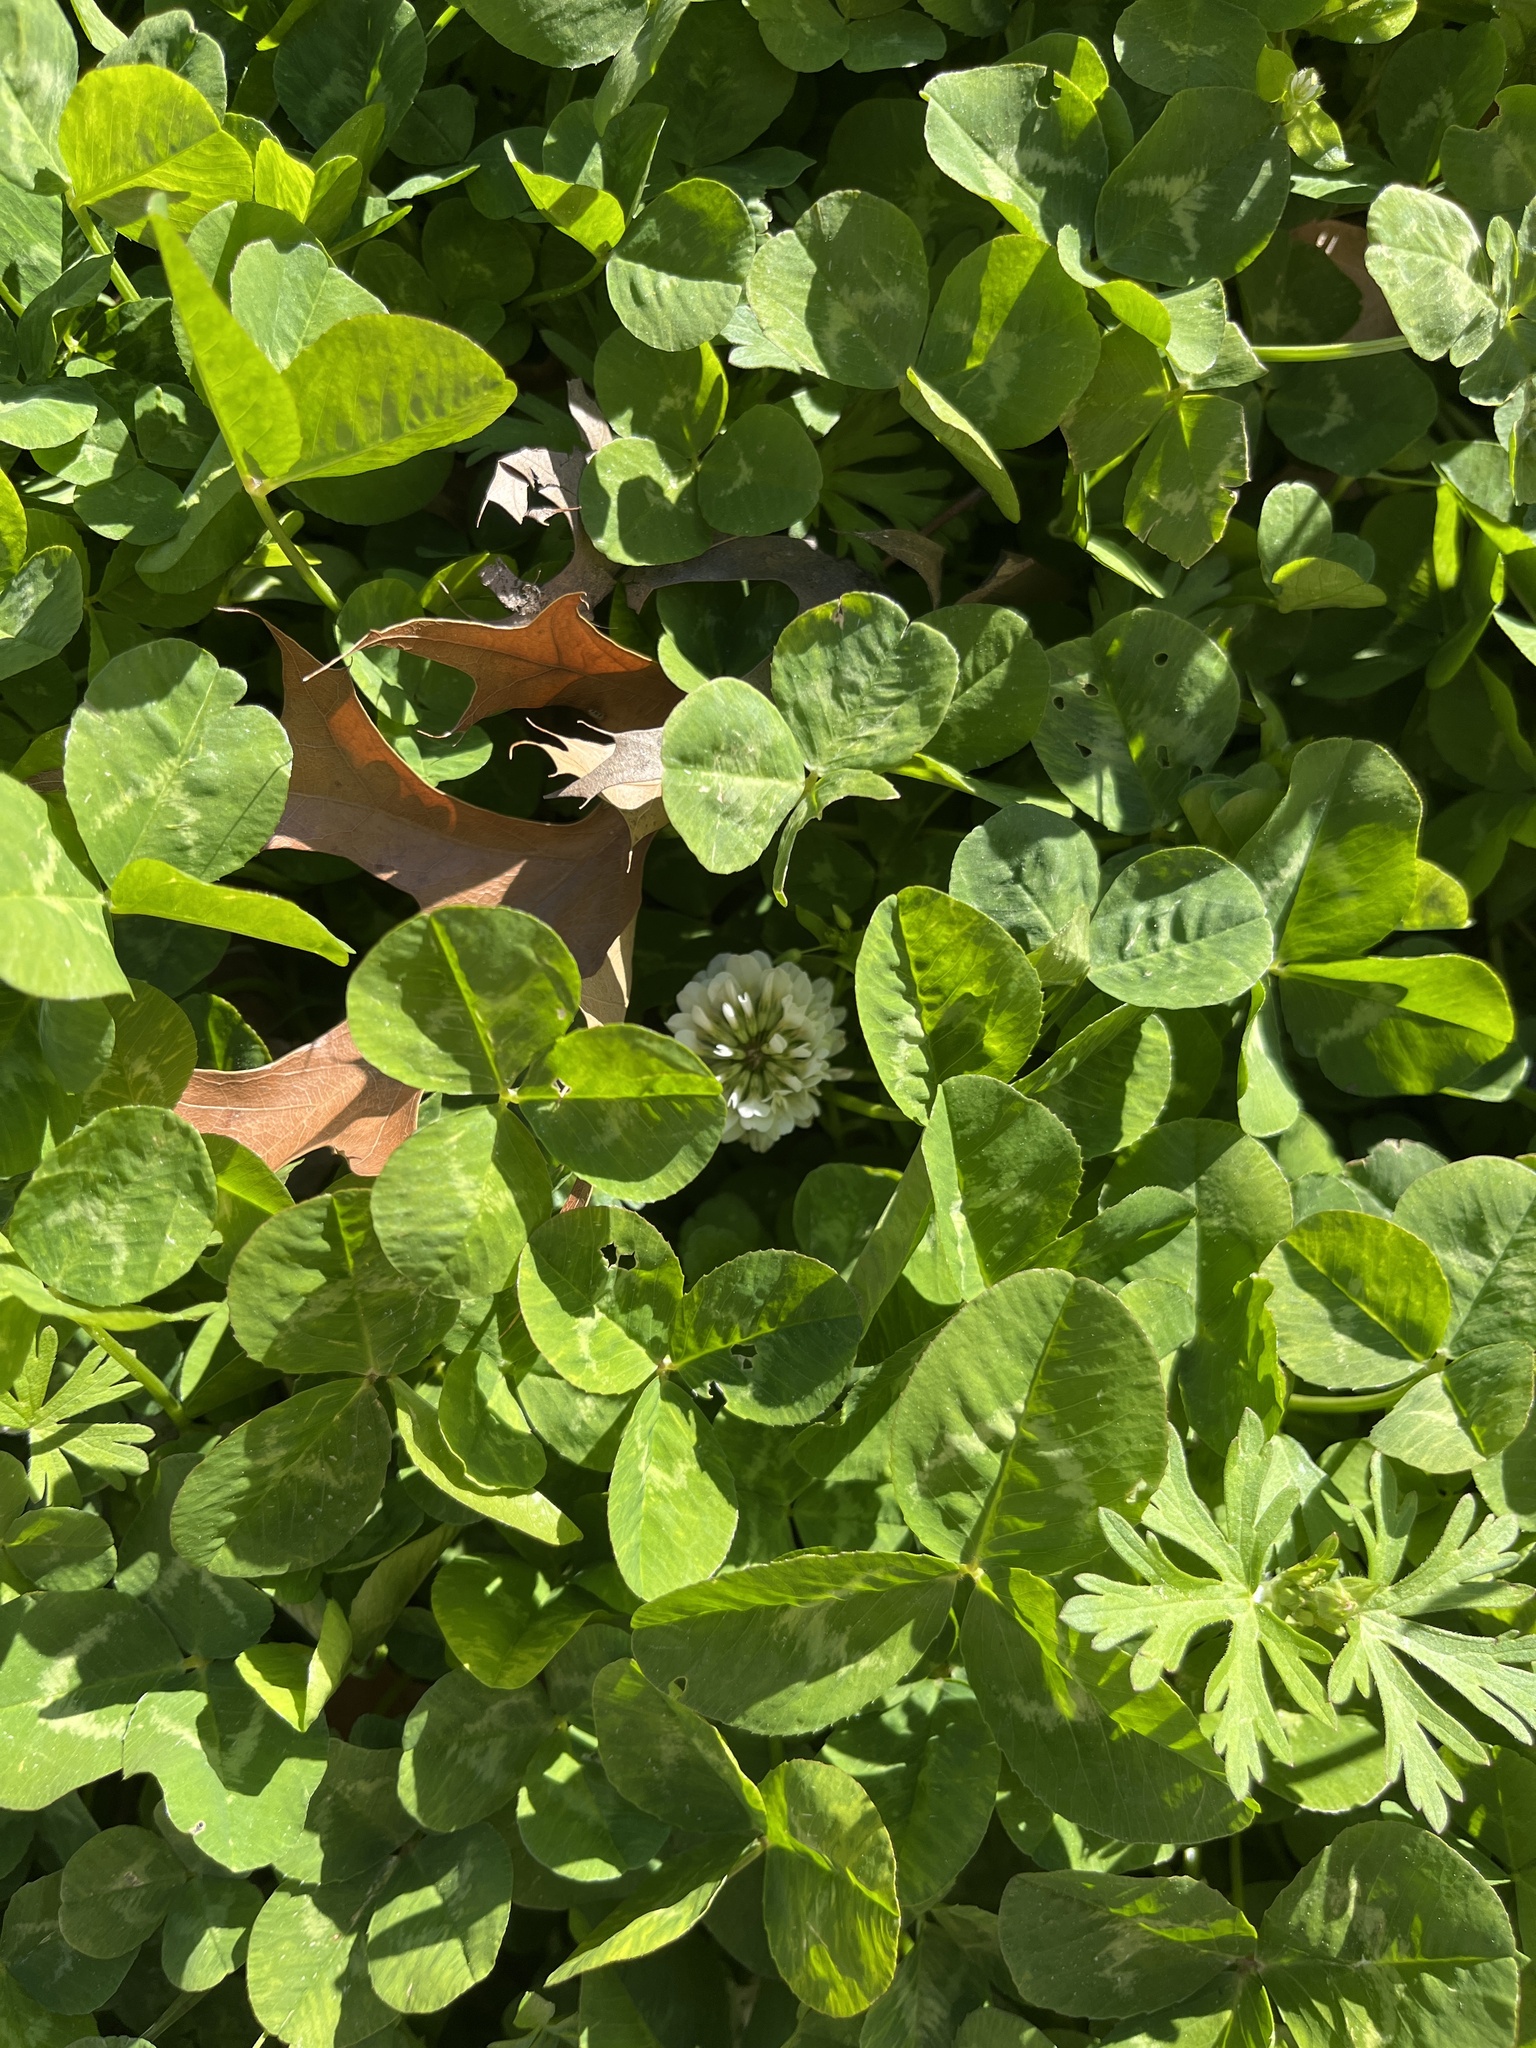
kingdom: Plantae
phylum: Tracheophyta
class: Magnoliopsida
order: Fabales
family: Fabaceae
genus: Trifolium
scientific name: Trifolium repens
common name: White clover
